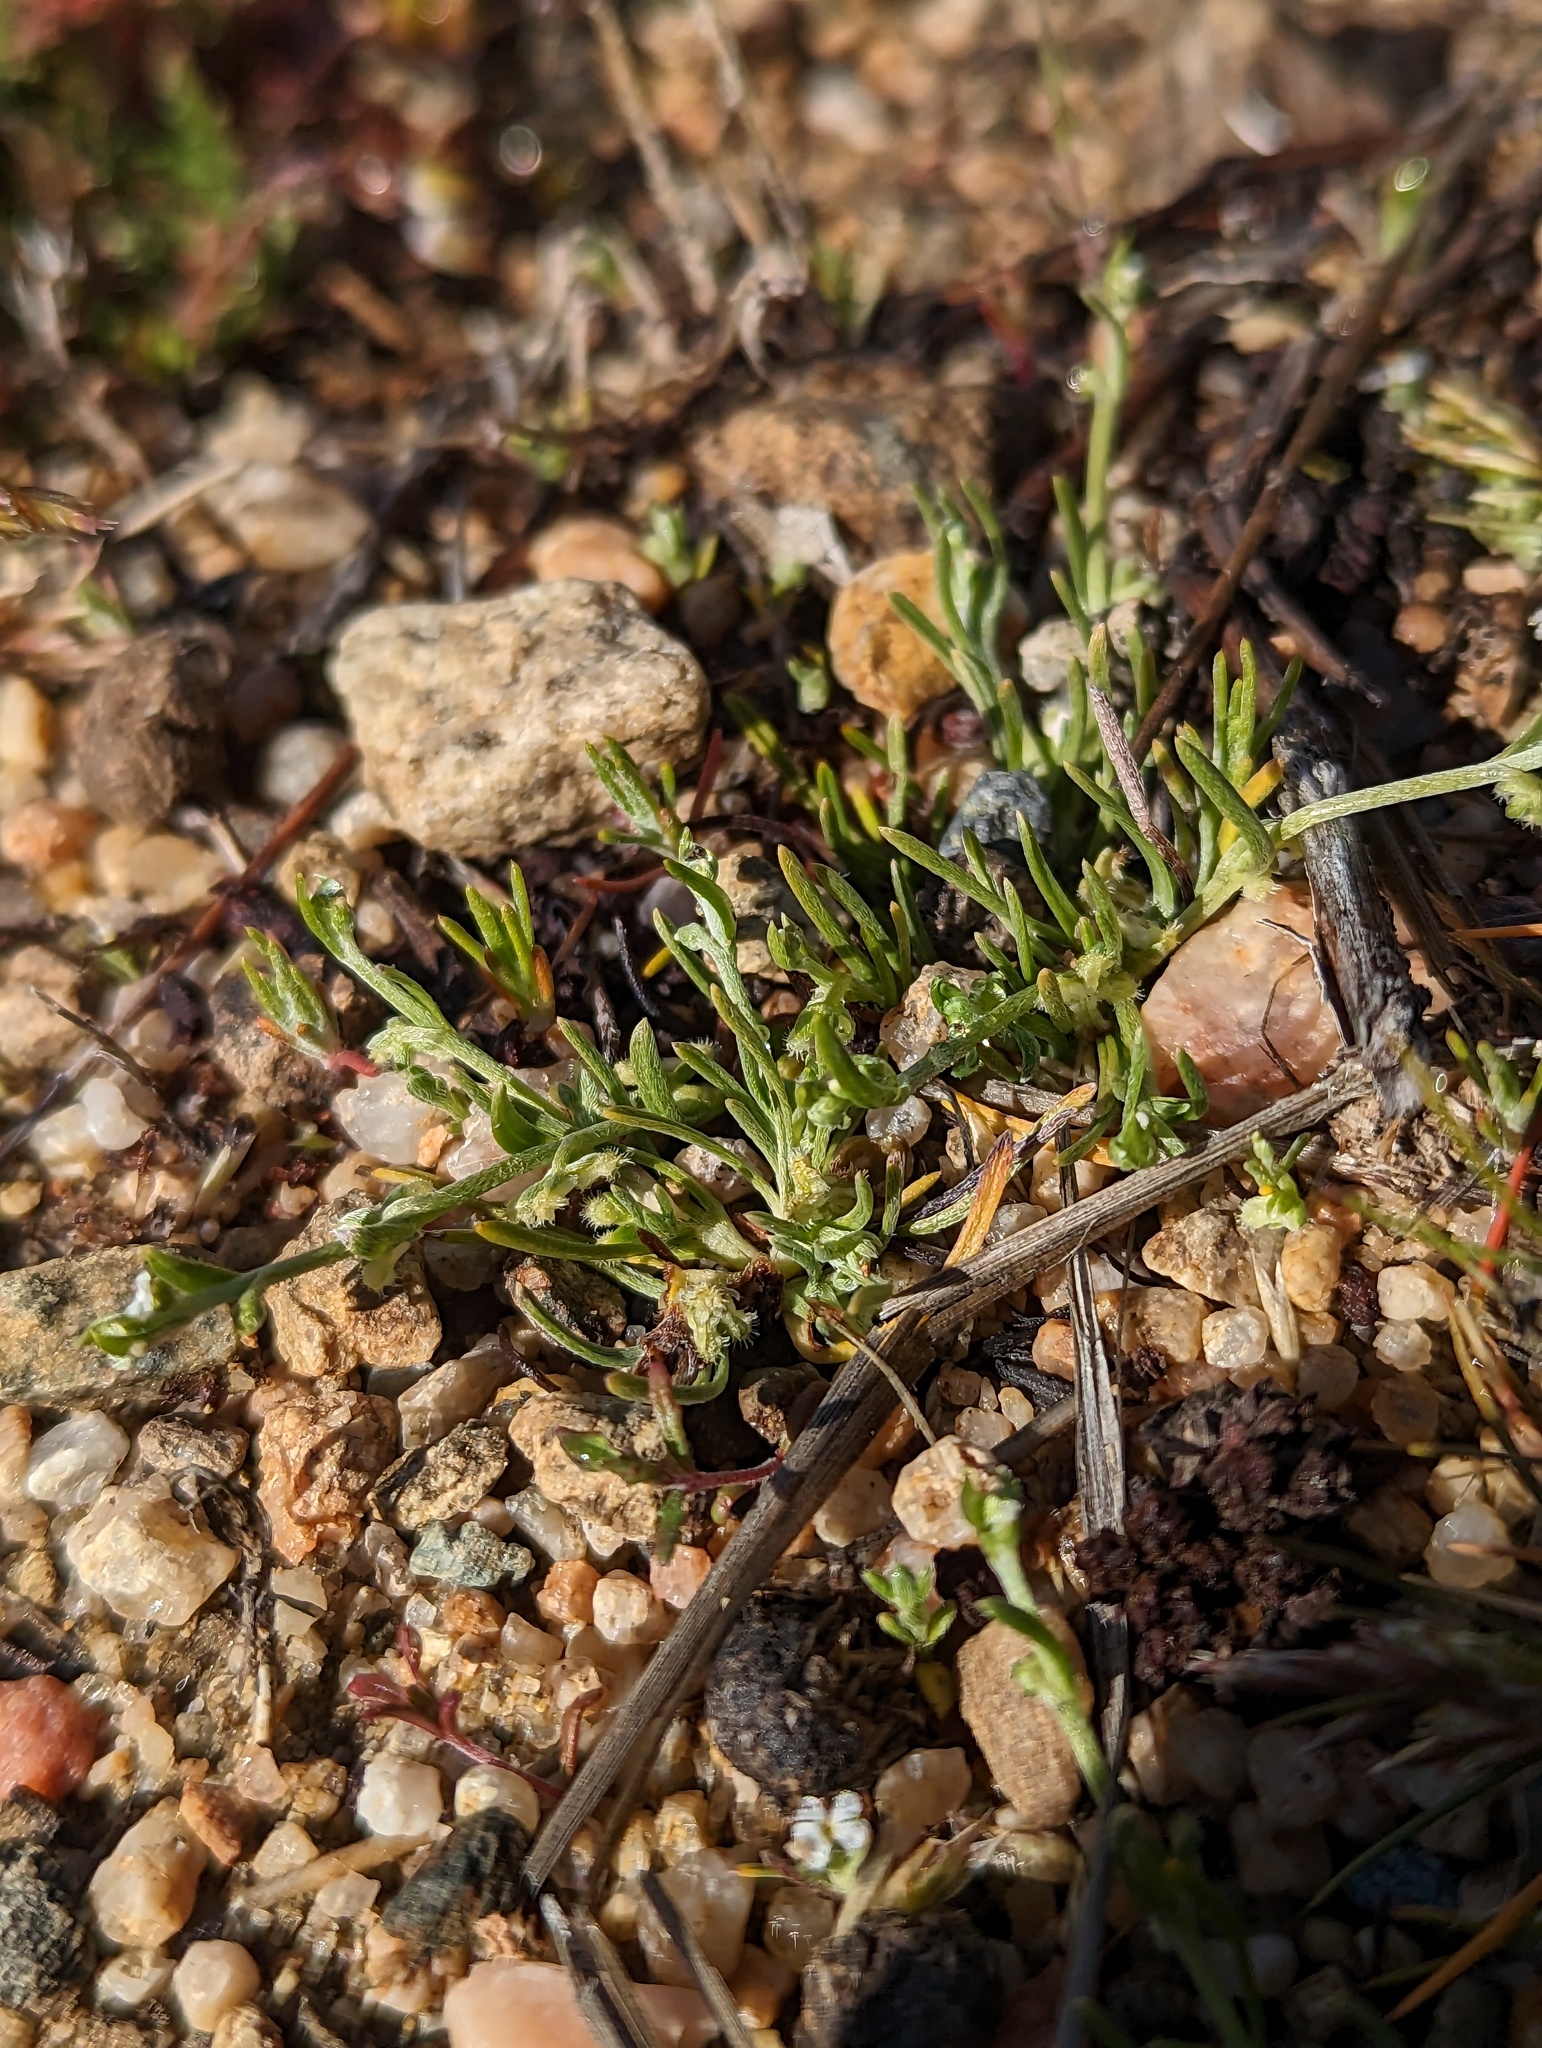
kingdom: Plantae
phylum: Tracheophyta
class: Magnoliopsida
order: Boraginales
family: Boraginaceae
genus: Pectocarya
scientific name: Pectocarya penicillata
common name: Short-leaved combseed
